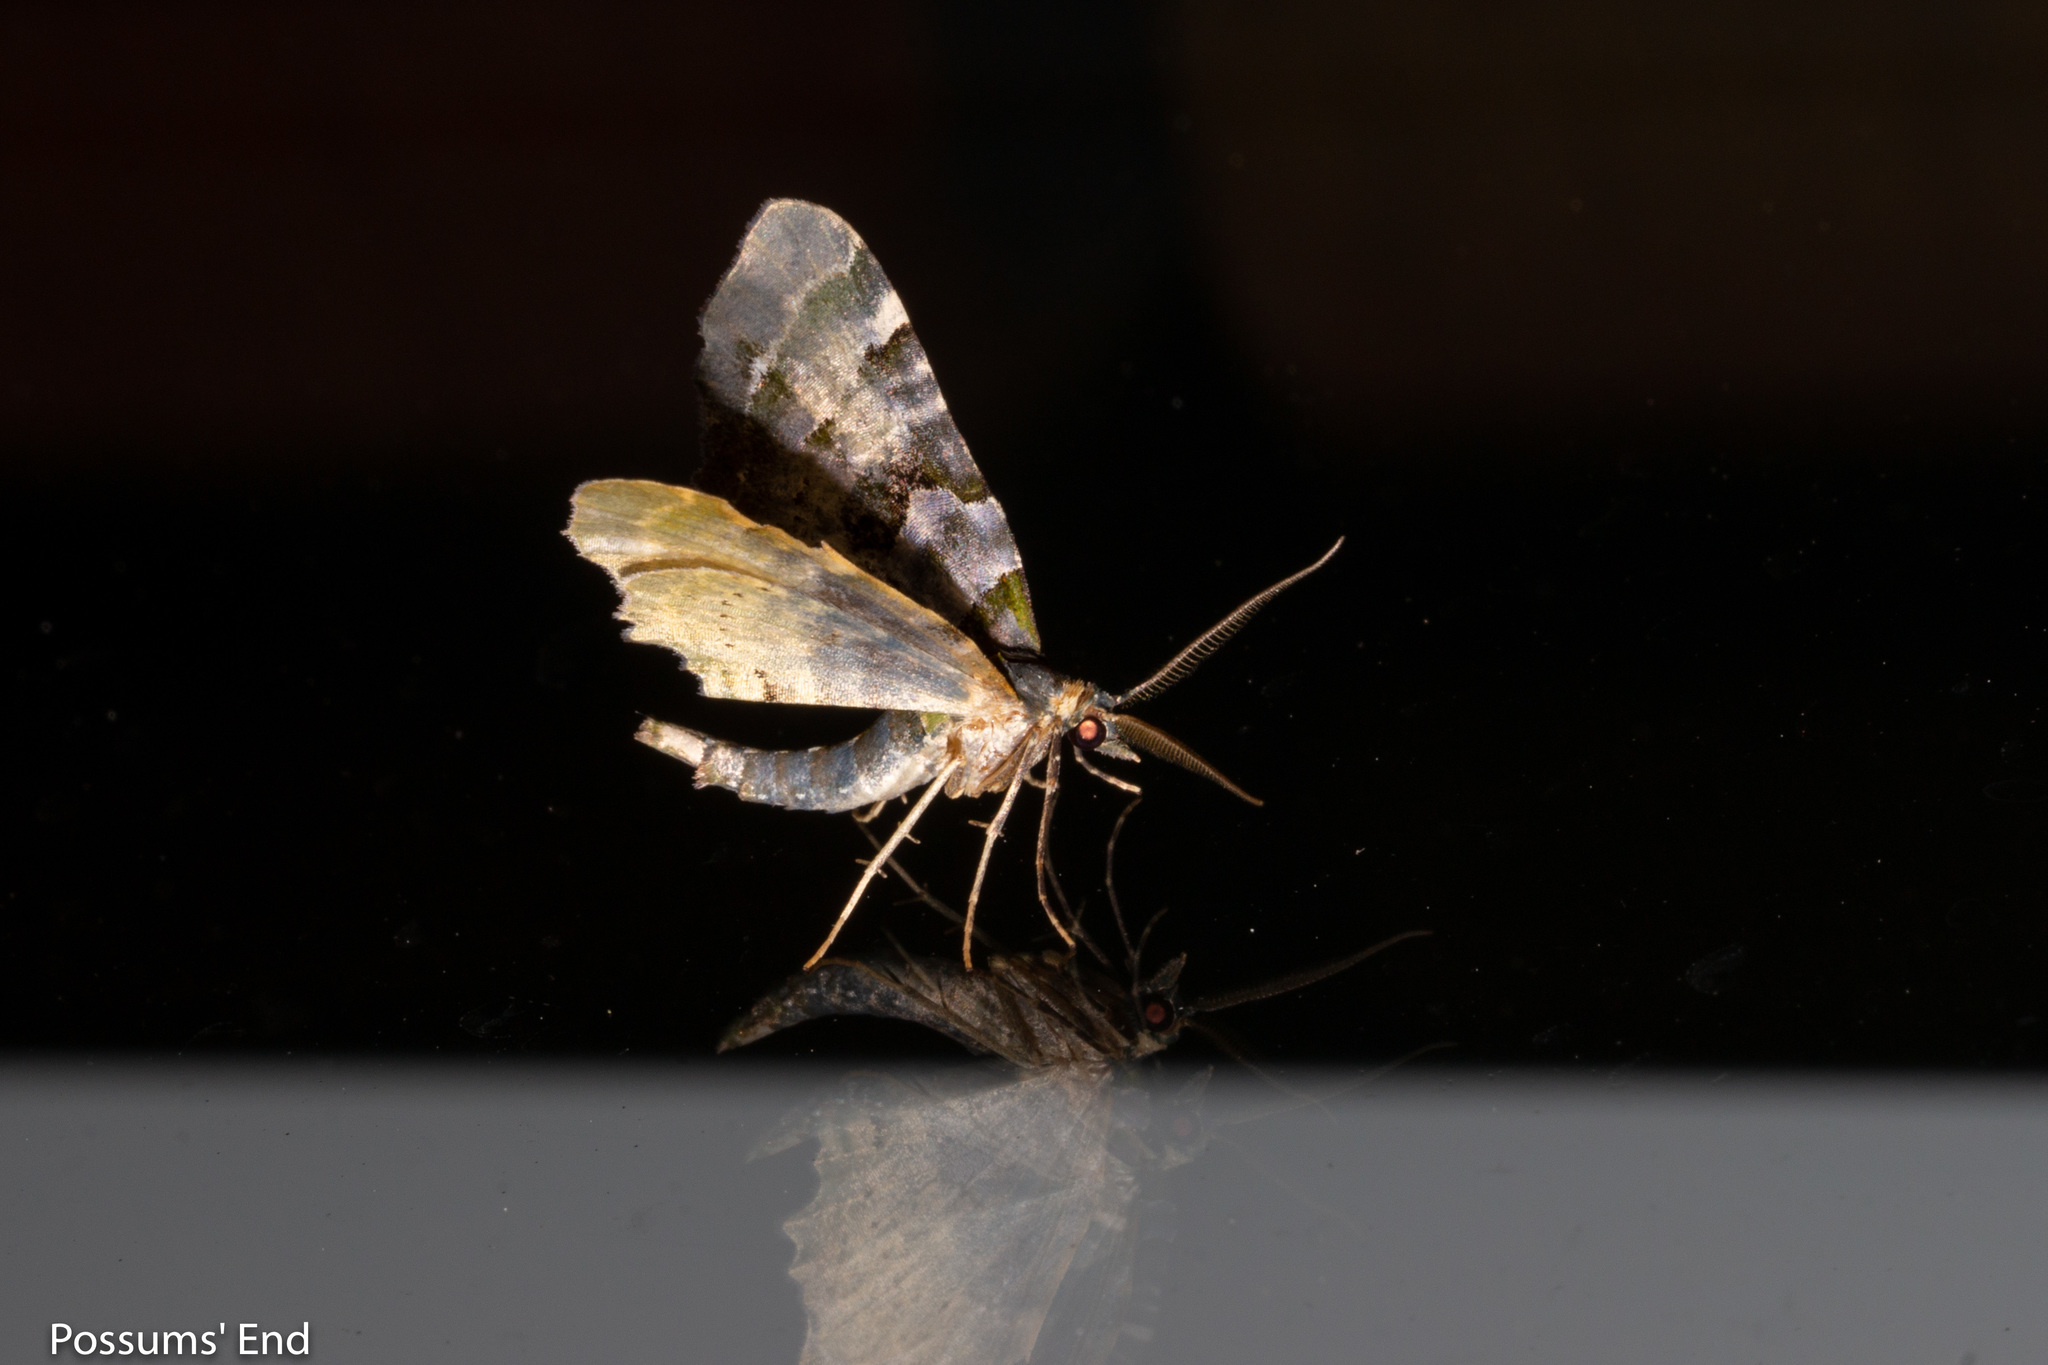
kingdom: Animalia
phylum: Arthropoda
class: Insecta
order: Lepidoptera
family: Geometridae
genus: Elvia
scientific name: Elvia glaucata
